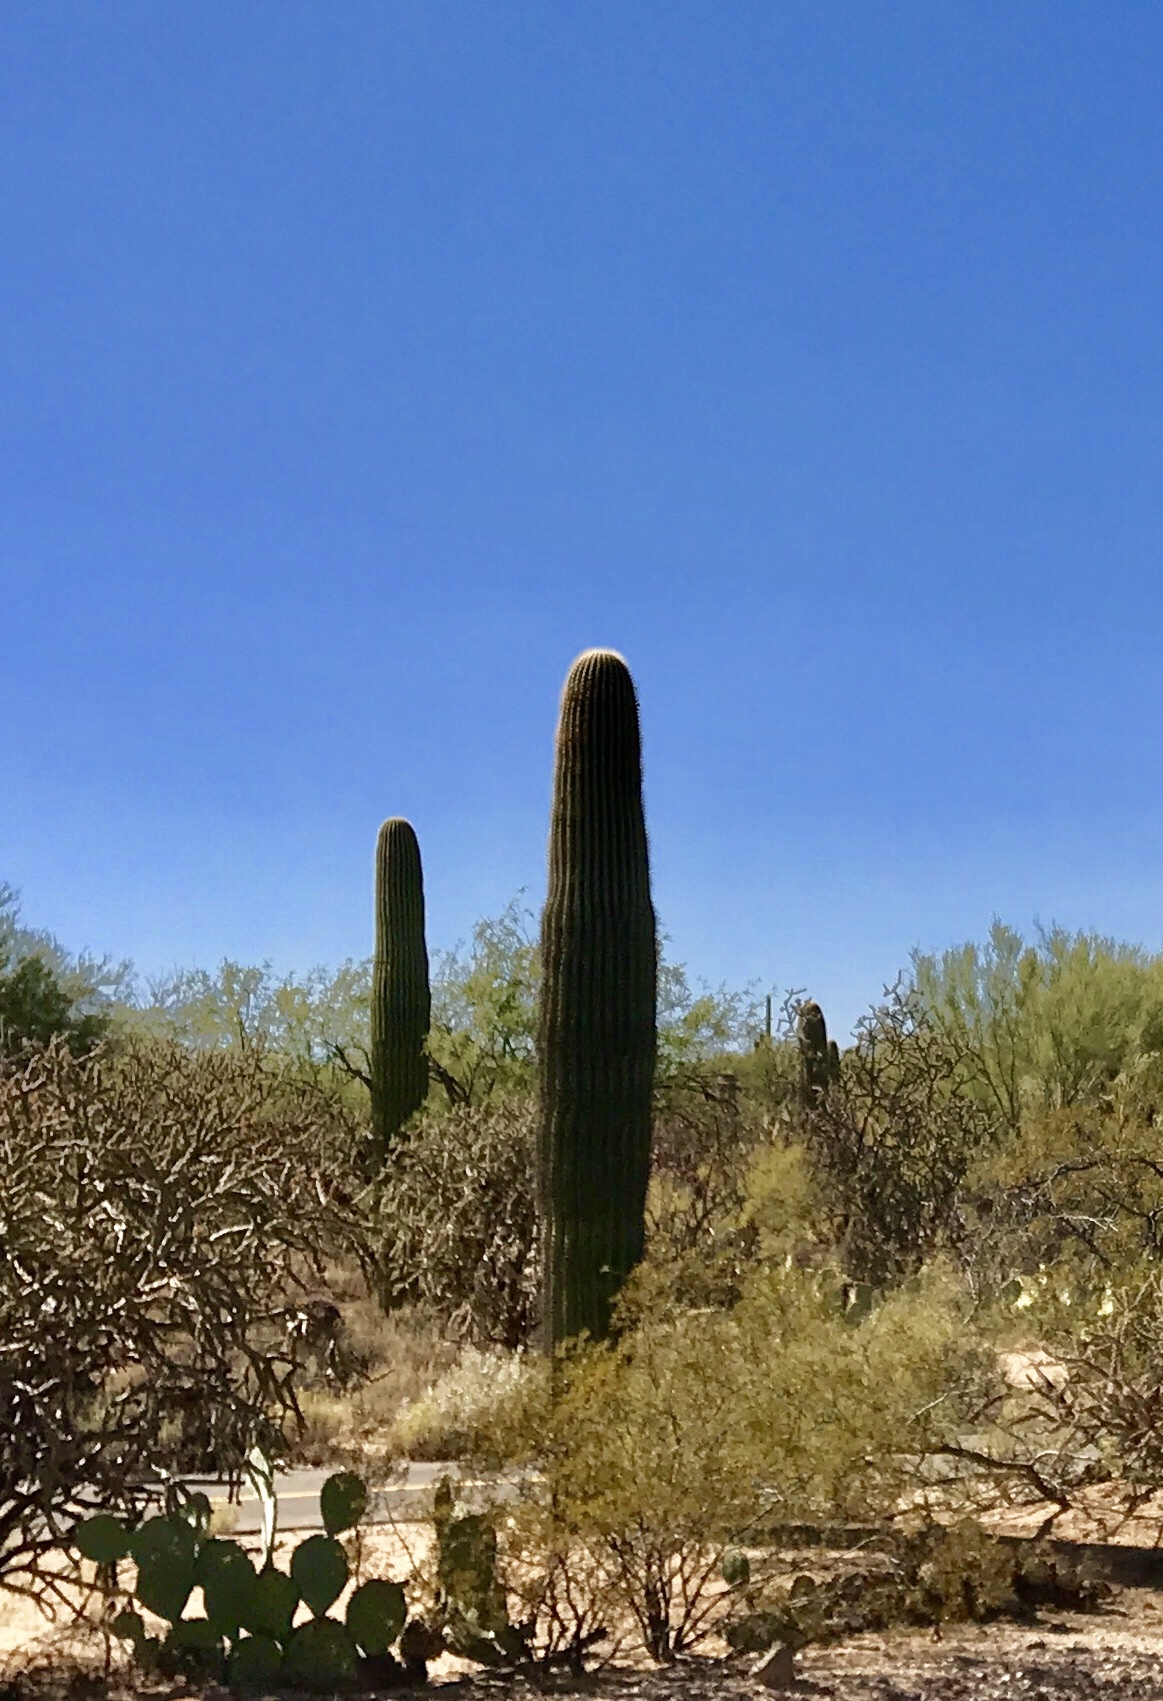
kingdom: Plantae
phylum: Tracheophyta
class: Magnoliopsida
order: Caryophyllales
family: Cactaceae
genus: Carnegiea
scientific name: Carnegiea gigantea
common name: Saguaro
